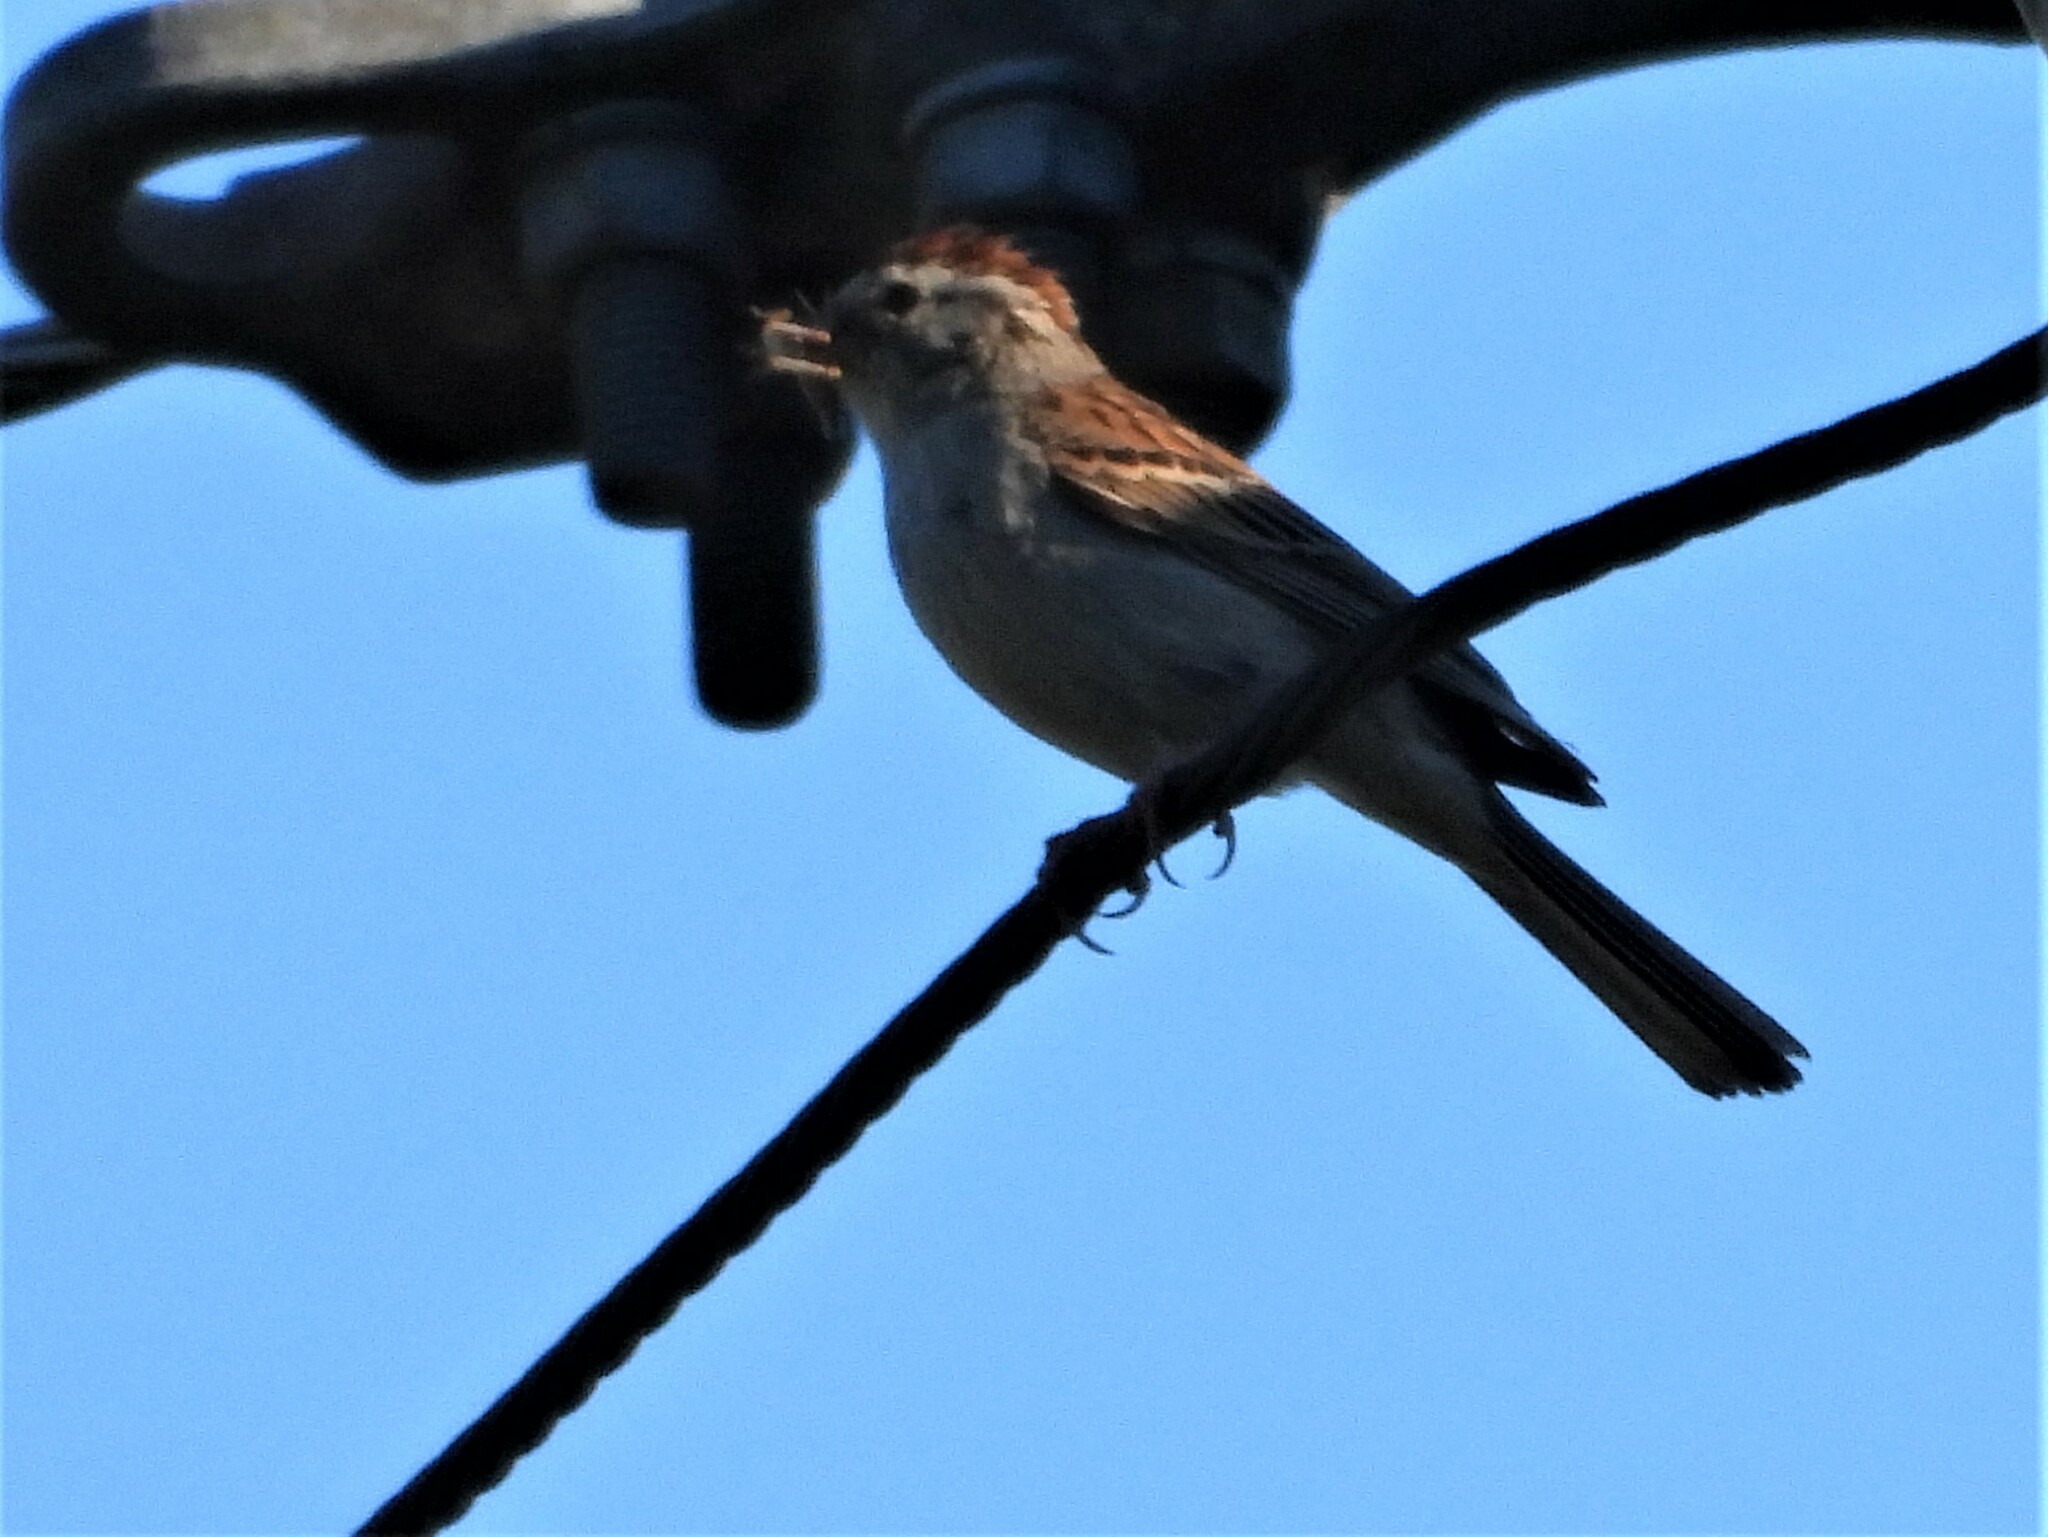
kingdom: Animalia
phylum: Chordata
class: Aves
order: Passeriformes
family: Passerellidae
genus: Spizella
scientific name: Spizella passerina
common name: Chipping sparrow
